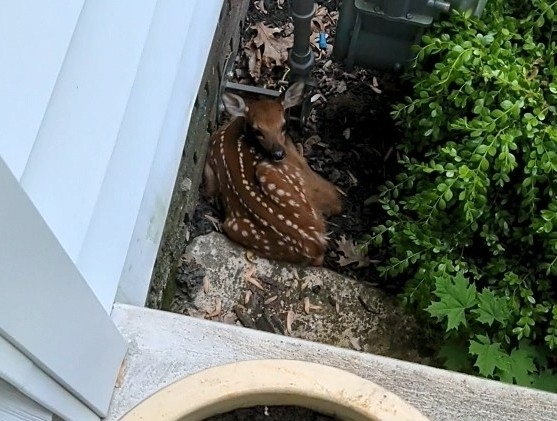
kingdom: Animalia
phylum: Chordata
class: Mammalia
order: Artiodactyla
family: Cervidae
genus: Odocoileus
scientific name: Odocoileus virginianus
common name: White-tailed deer
